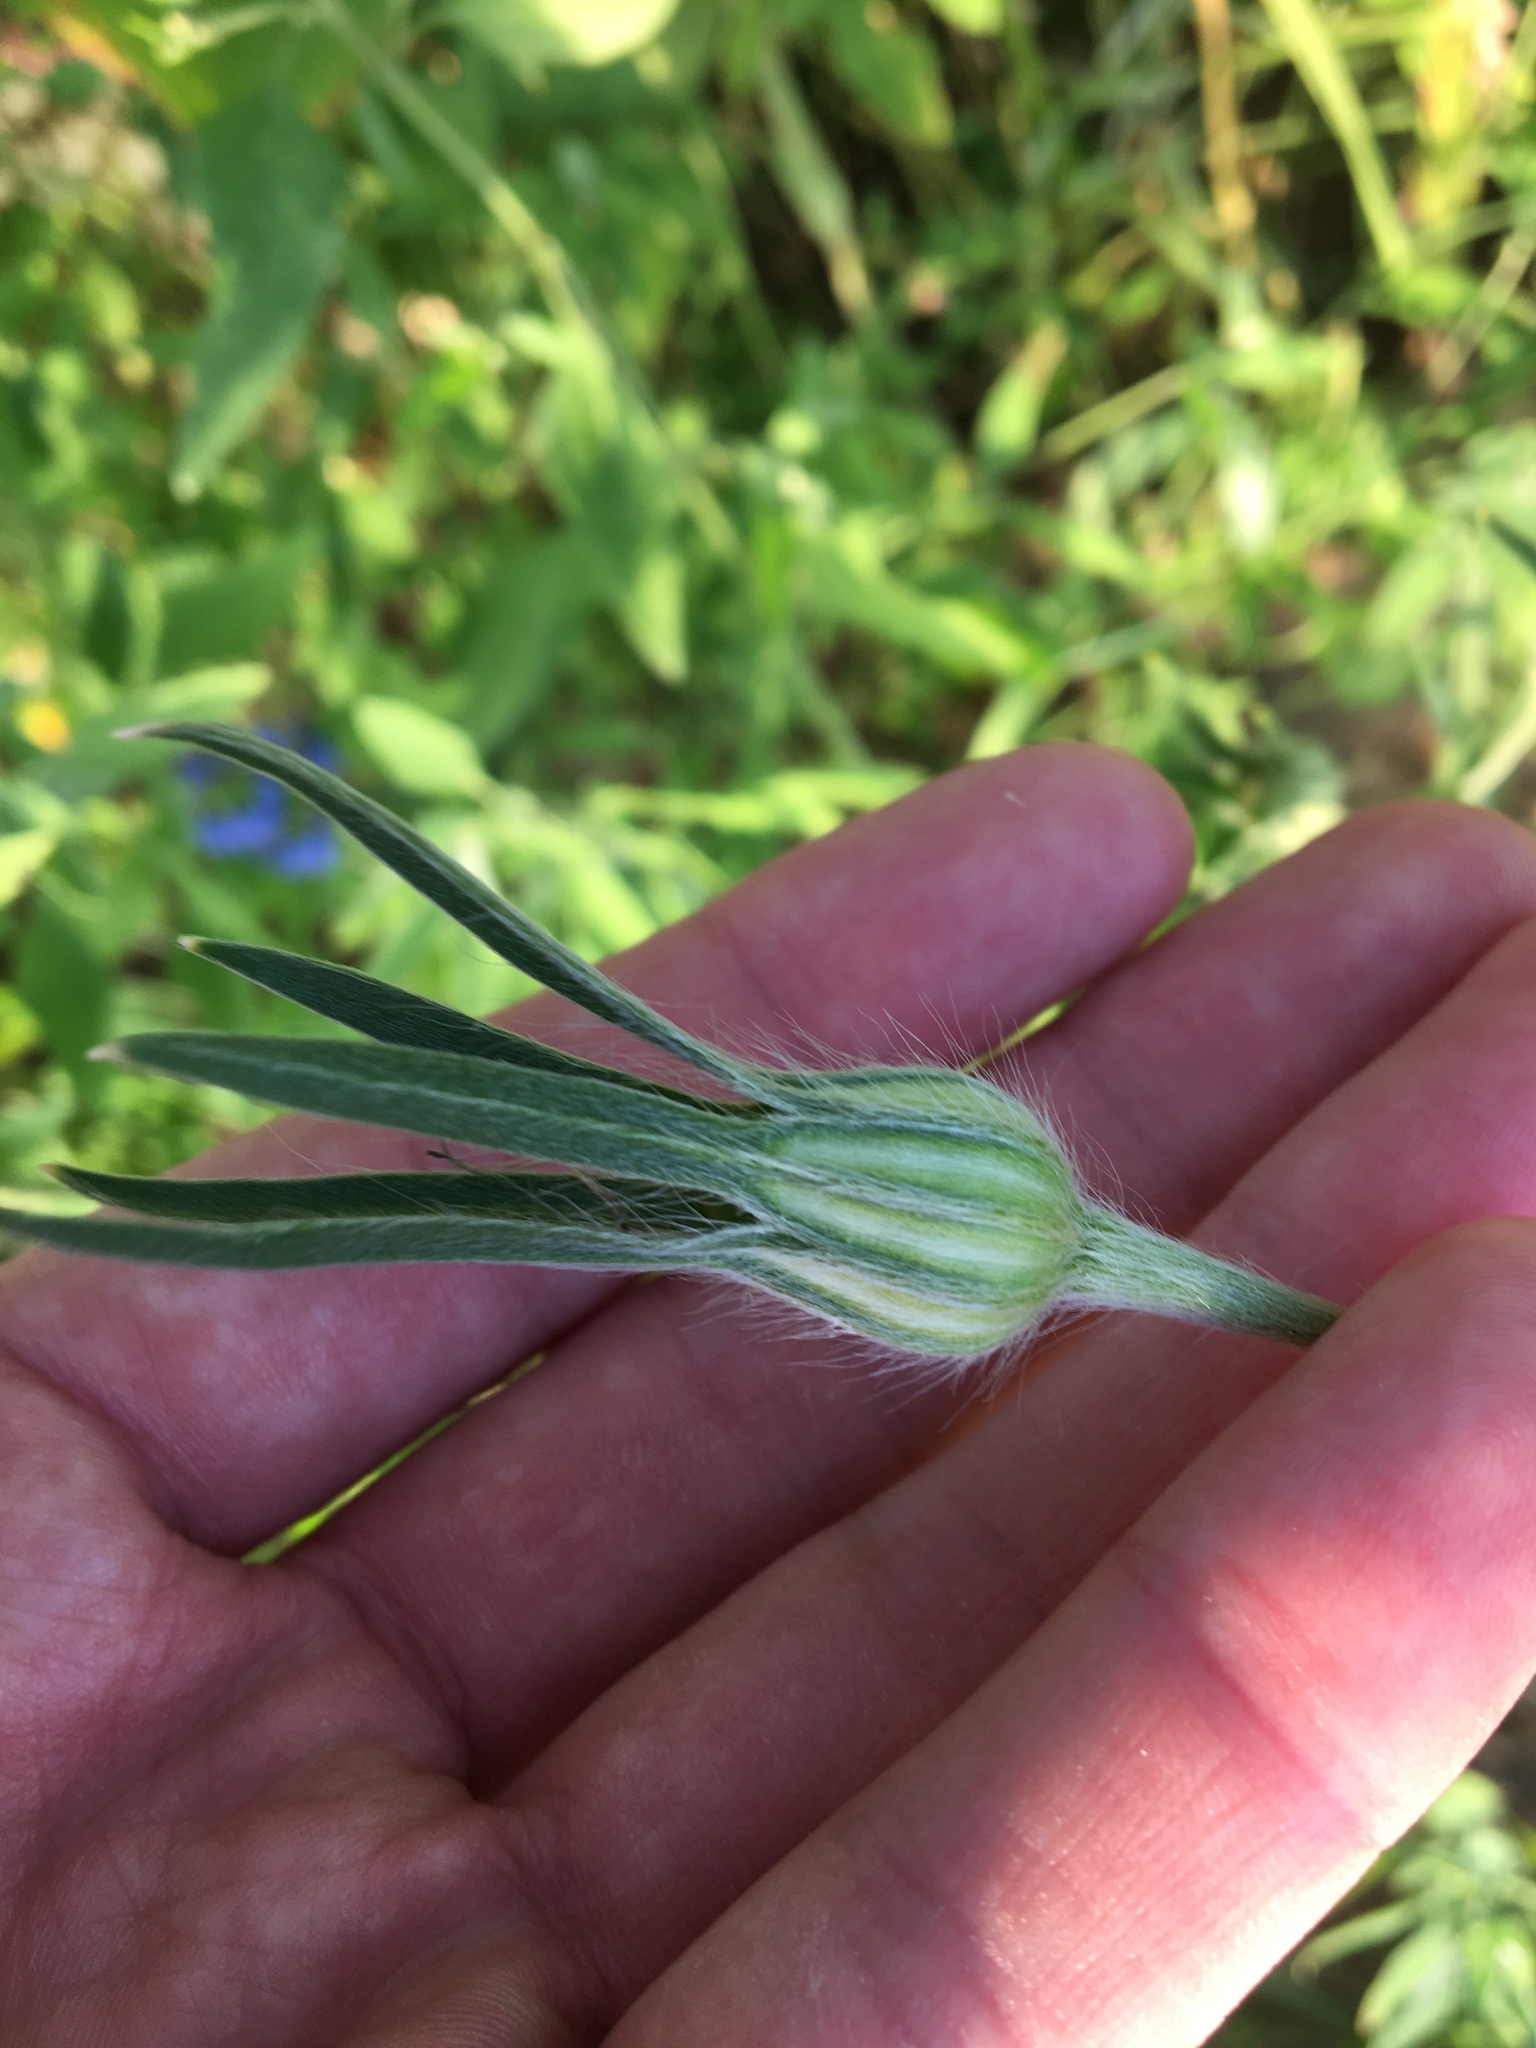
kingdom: Plantae
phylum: Tracheophyta
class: Magnoliopsida
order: Caryophyllales
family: Caryophyllaceae
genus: Agrostemma
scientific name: Agrostemma githago
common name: Common corncockle
